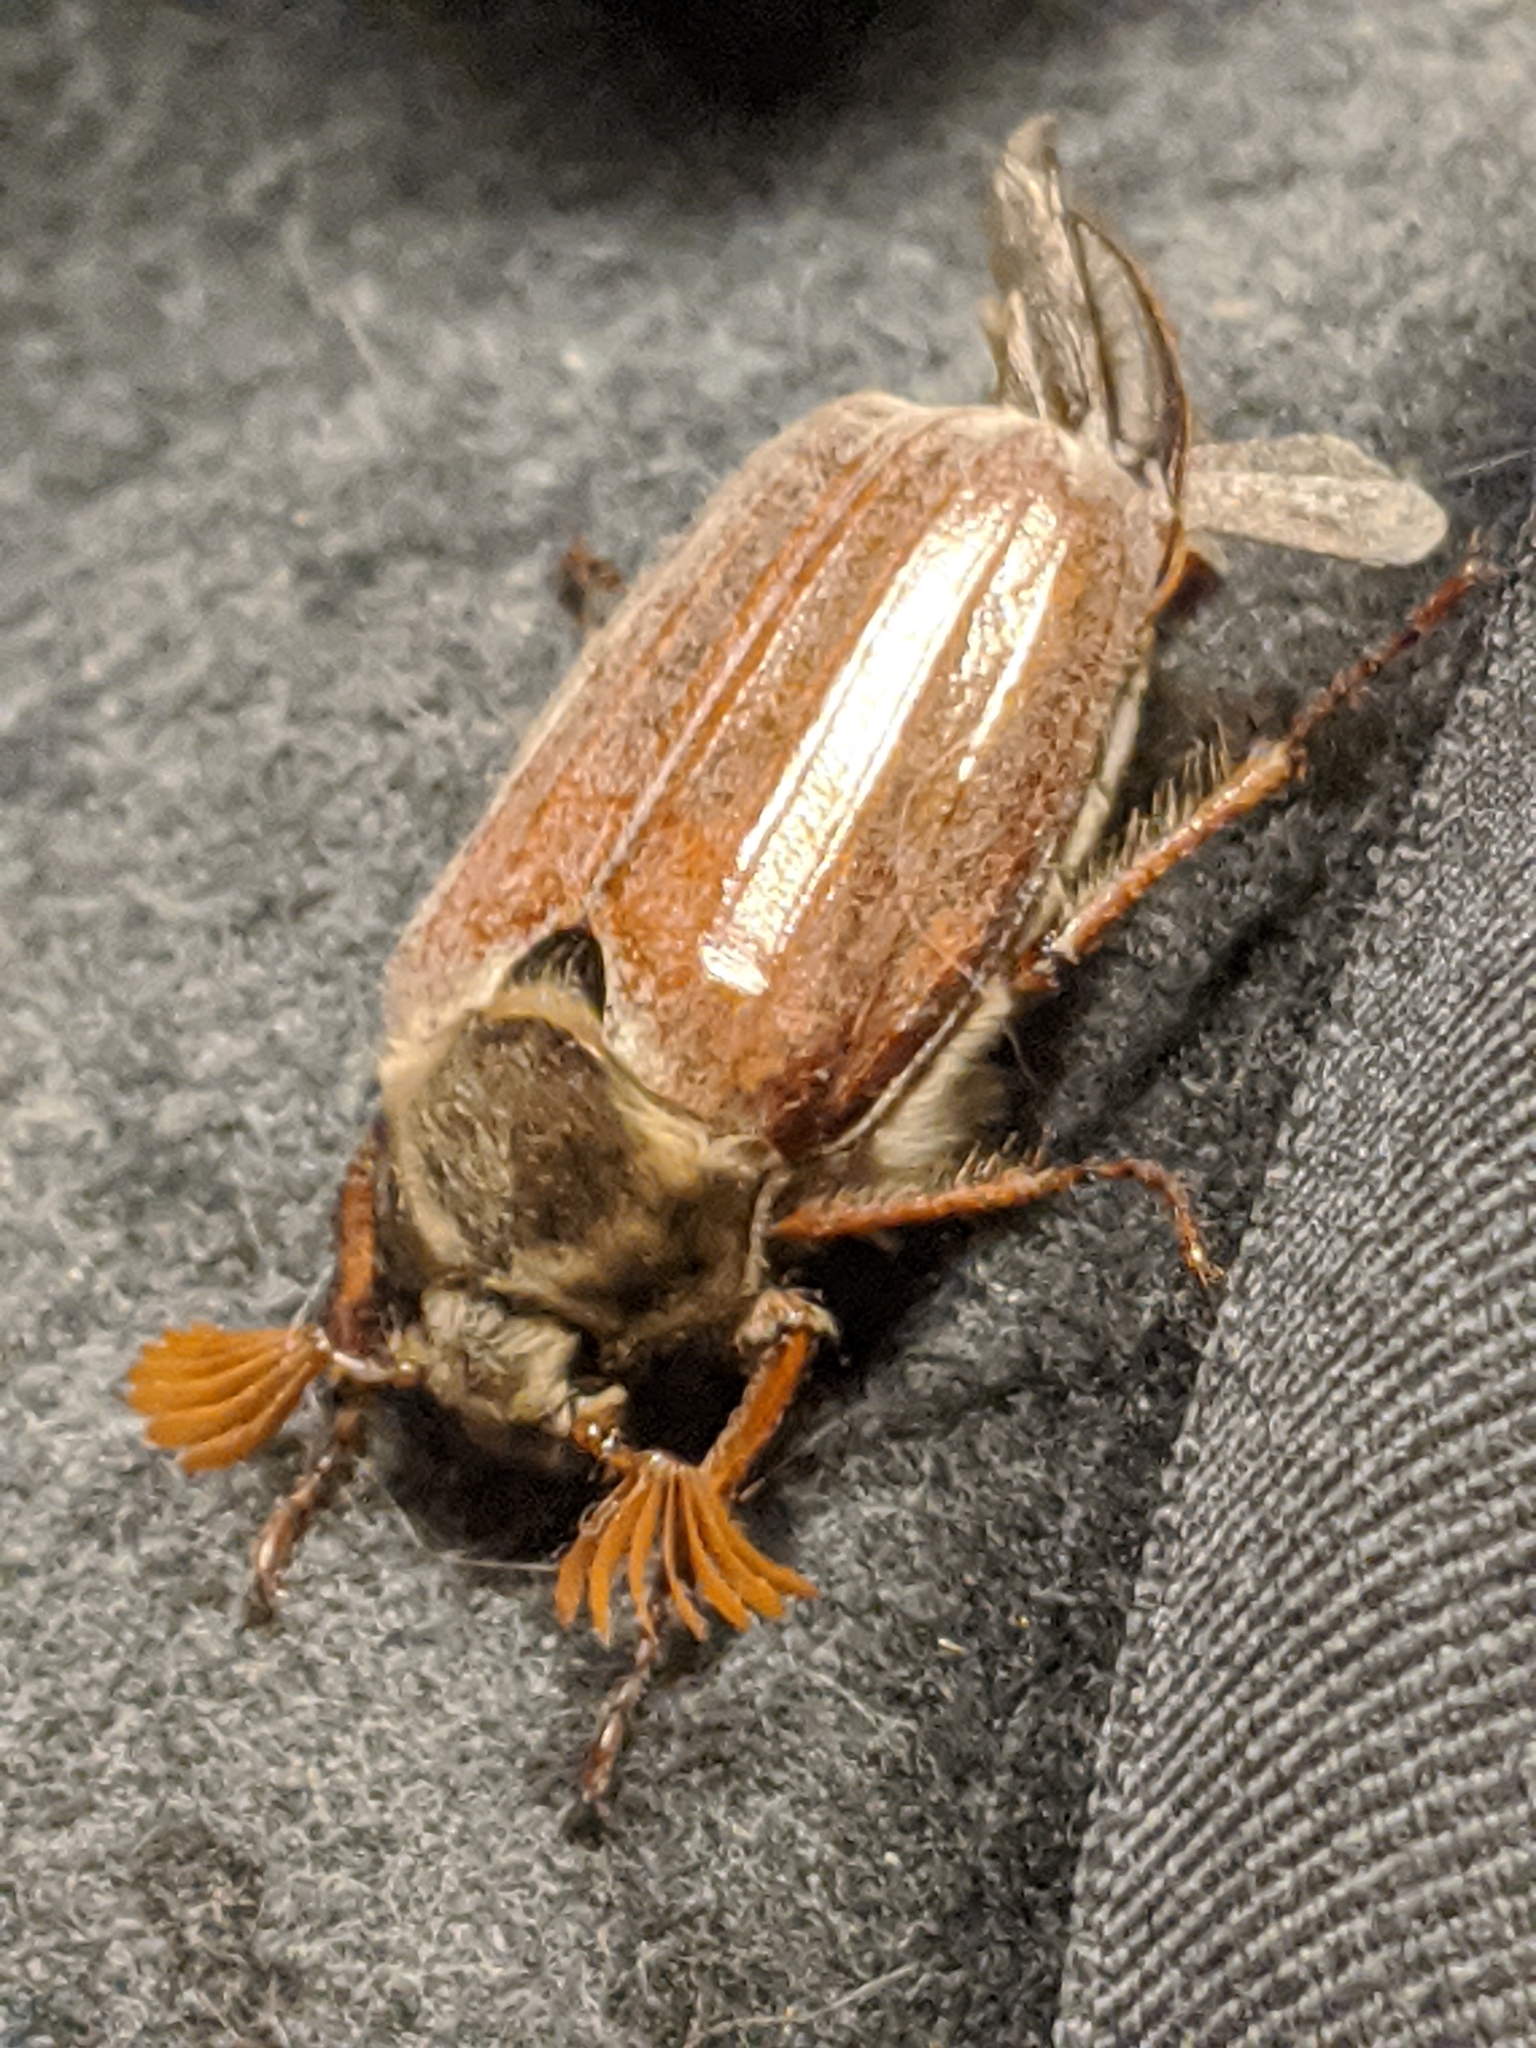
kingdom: Animalia
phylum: Arthropoda
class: Insecta
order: Coleoptera
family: Scarabaeidae
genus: Melolontha
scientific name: Melolontha melolontha
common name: Cockchafer maybeetle
